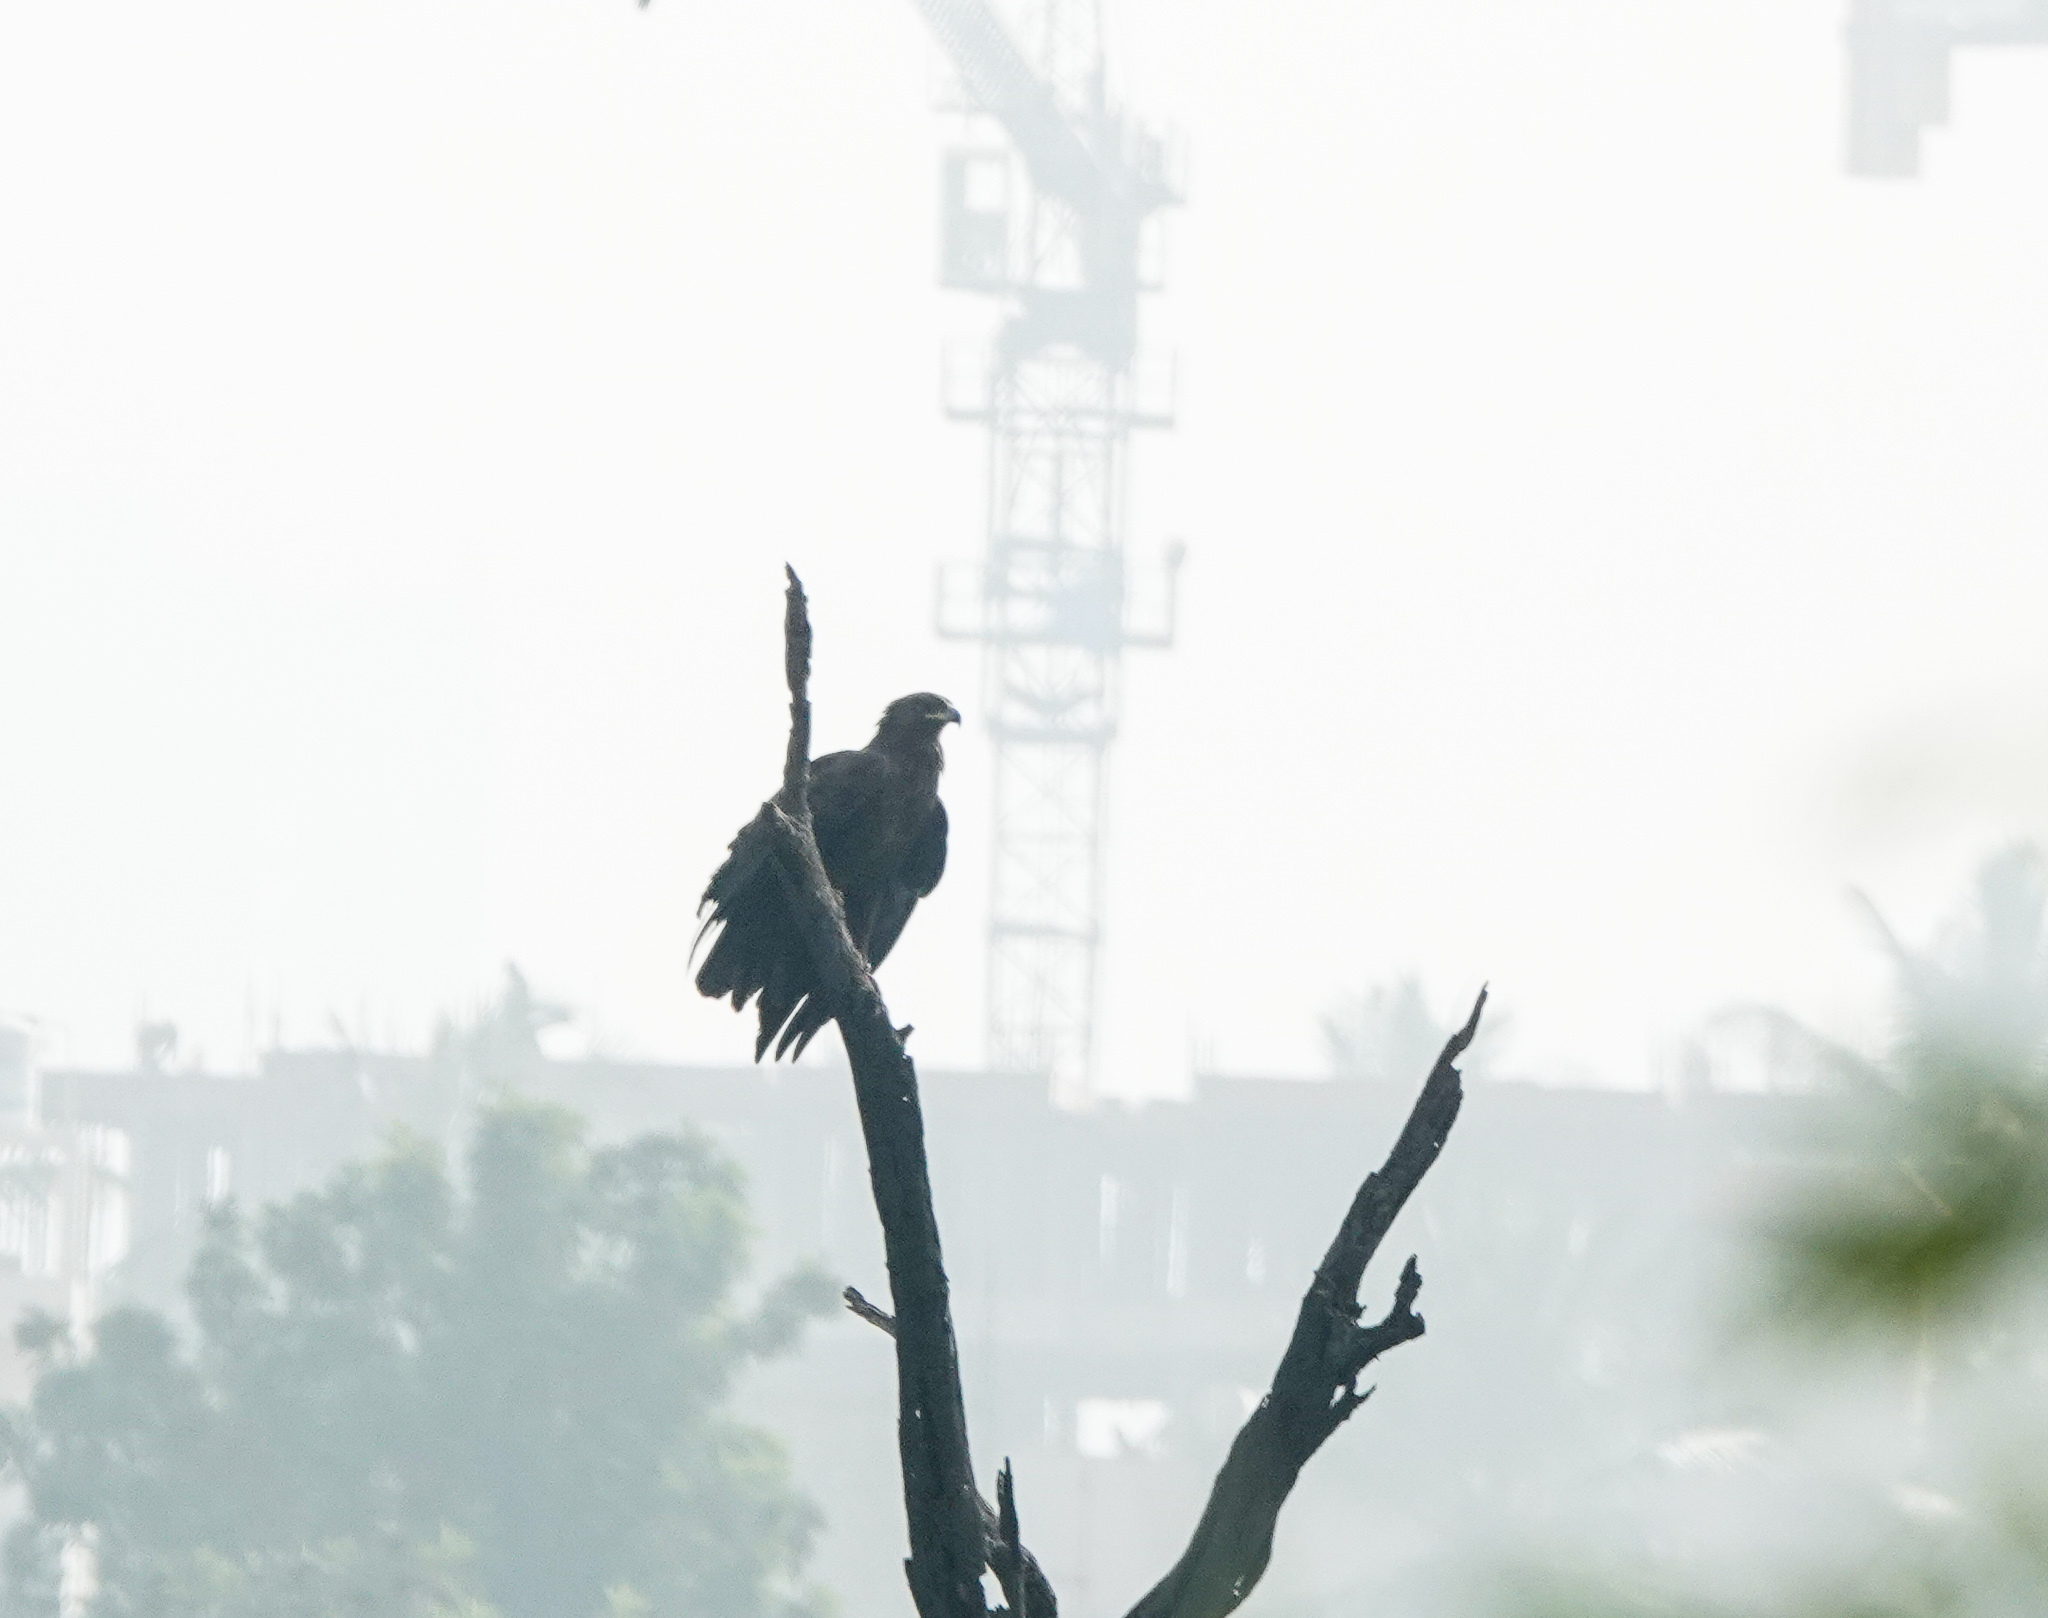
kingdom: Animalia
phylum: Chordata
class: Aves
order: Accipitriformes
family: Accipitridae
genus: Aquila
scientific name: Aquila clanga
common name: Greater spotted eagle
